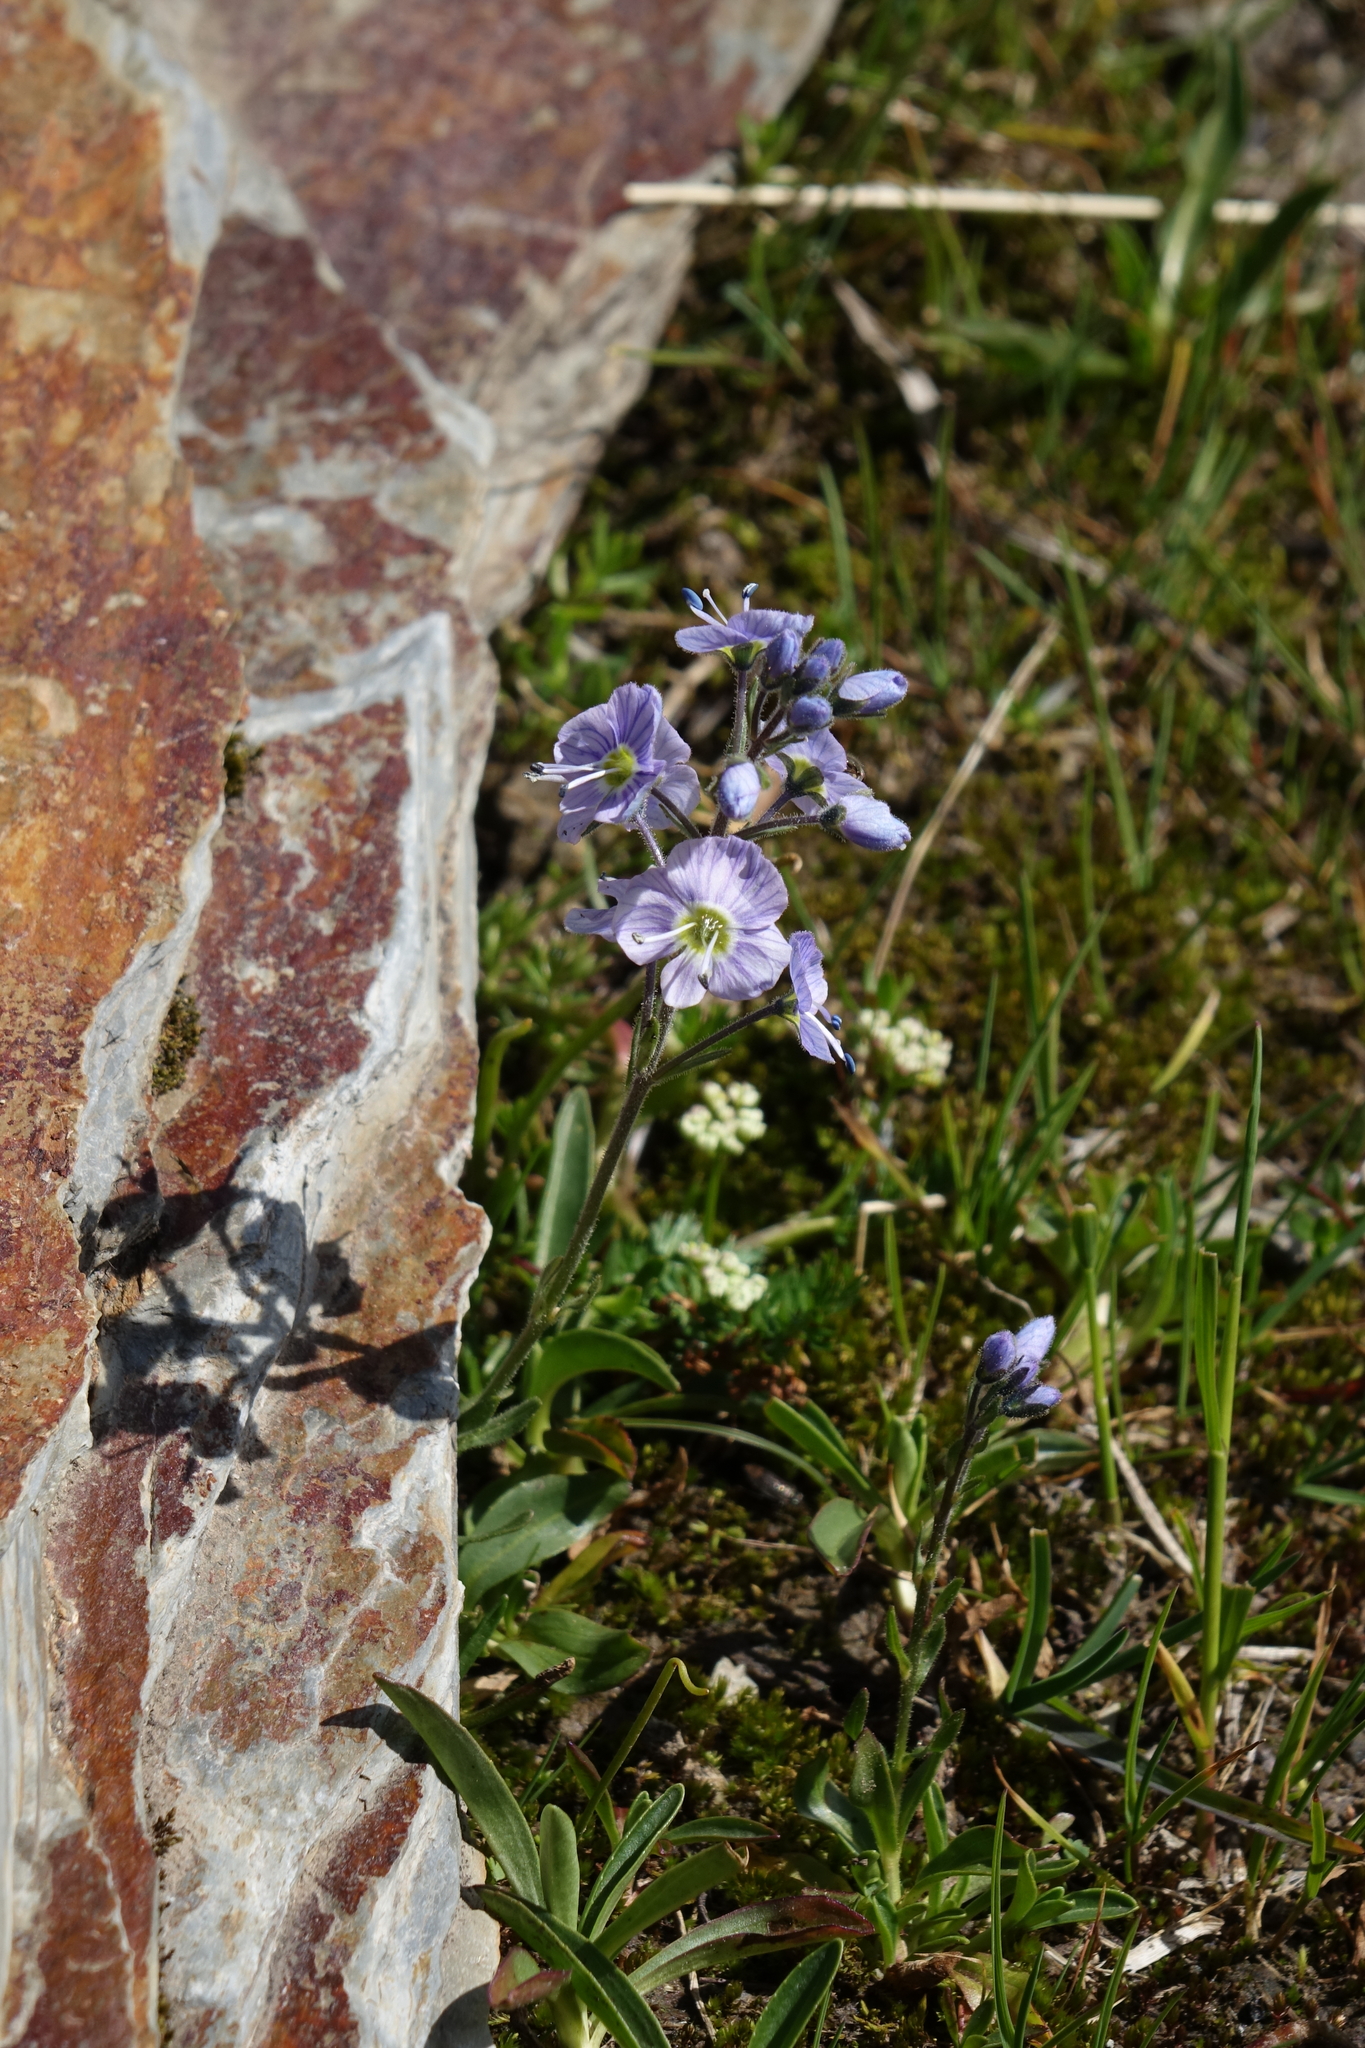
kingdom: Plantae
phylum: Tracheophyta
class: Magnoliopsida
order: Lamiales
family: Plantaginaceae
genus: Veronica
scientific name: Veronica gentianoides
